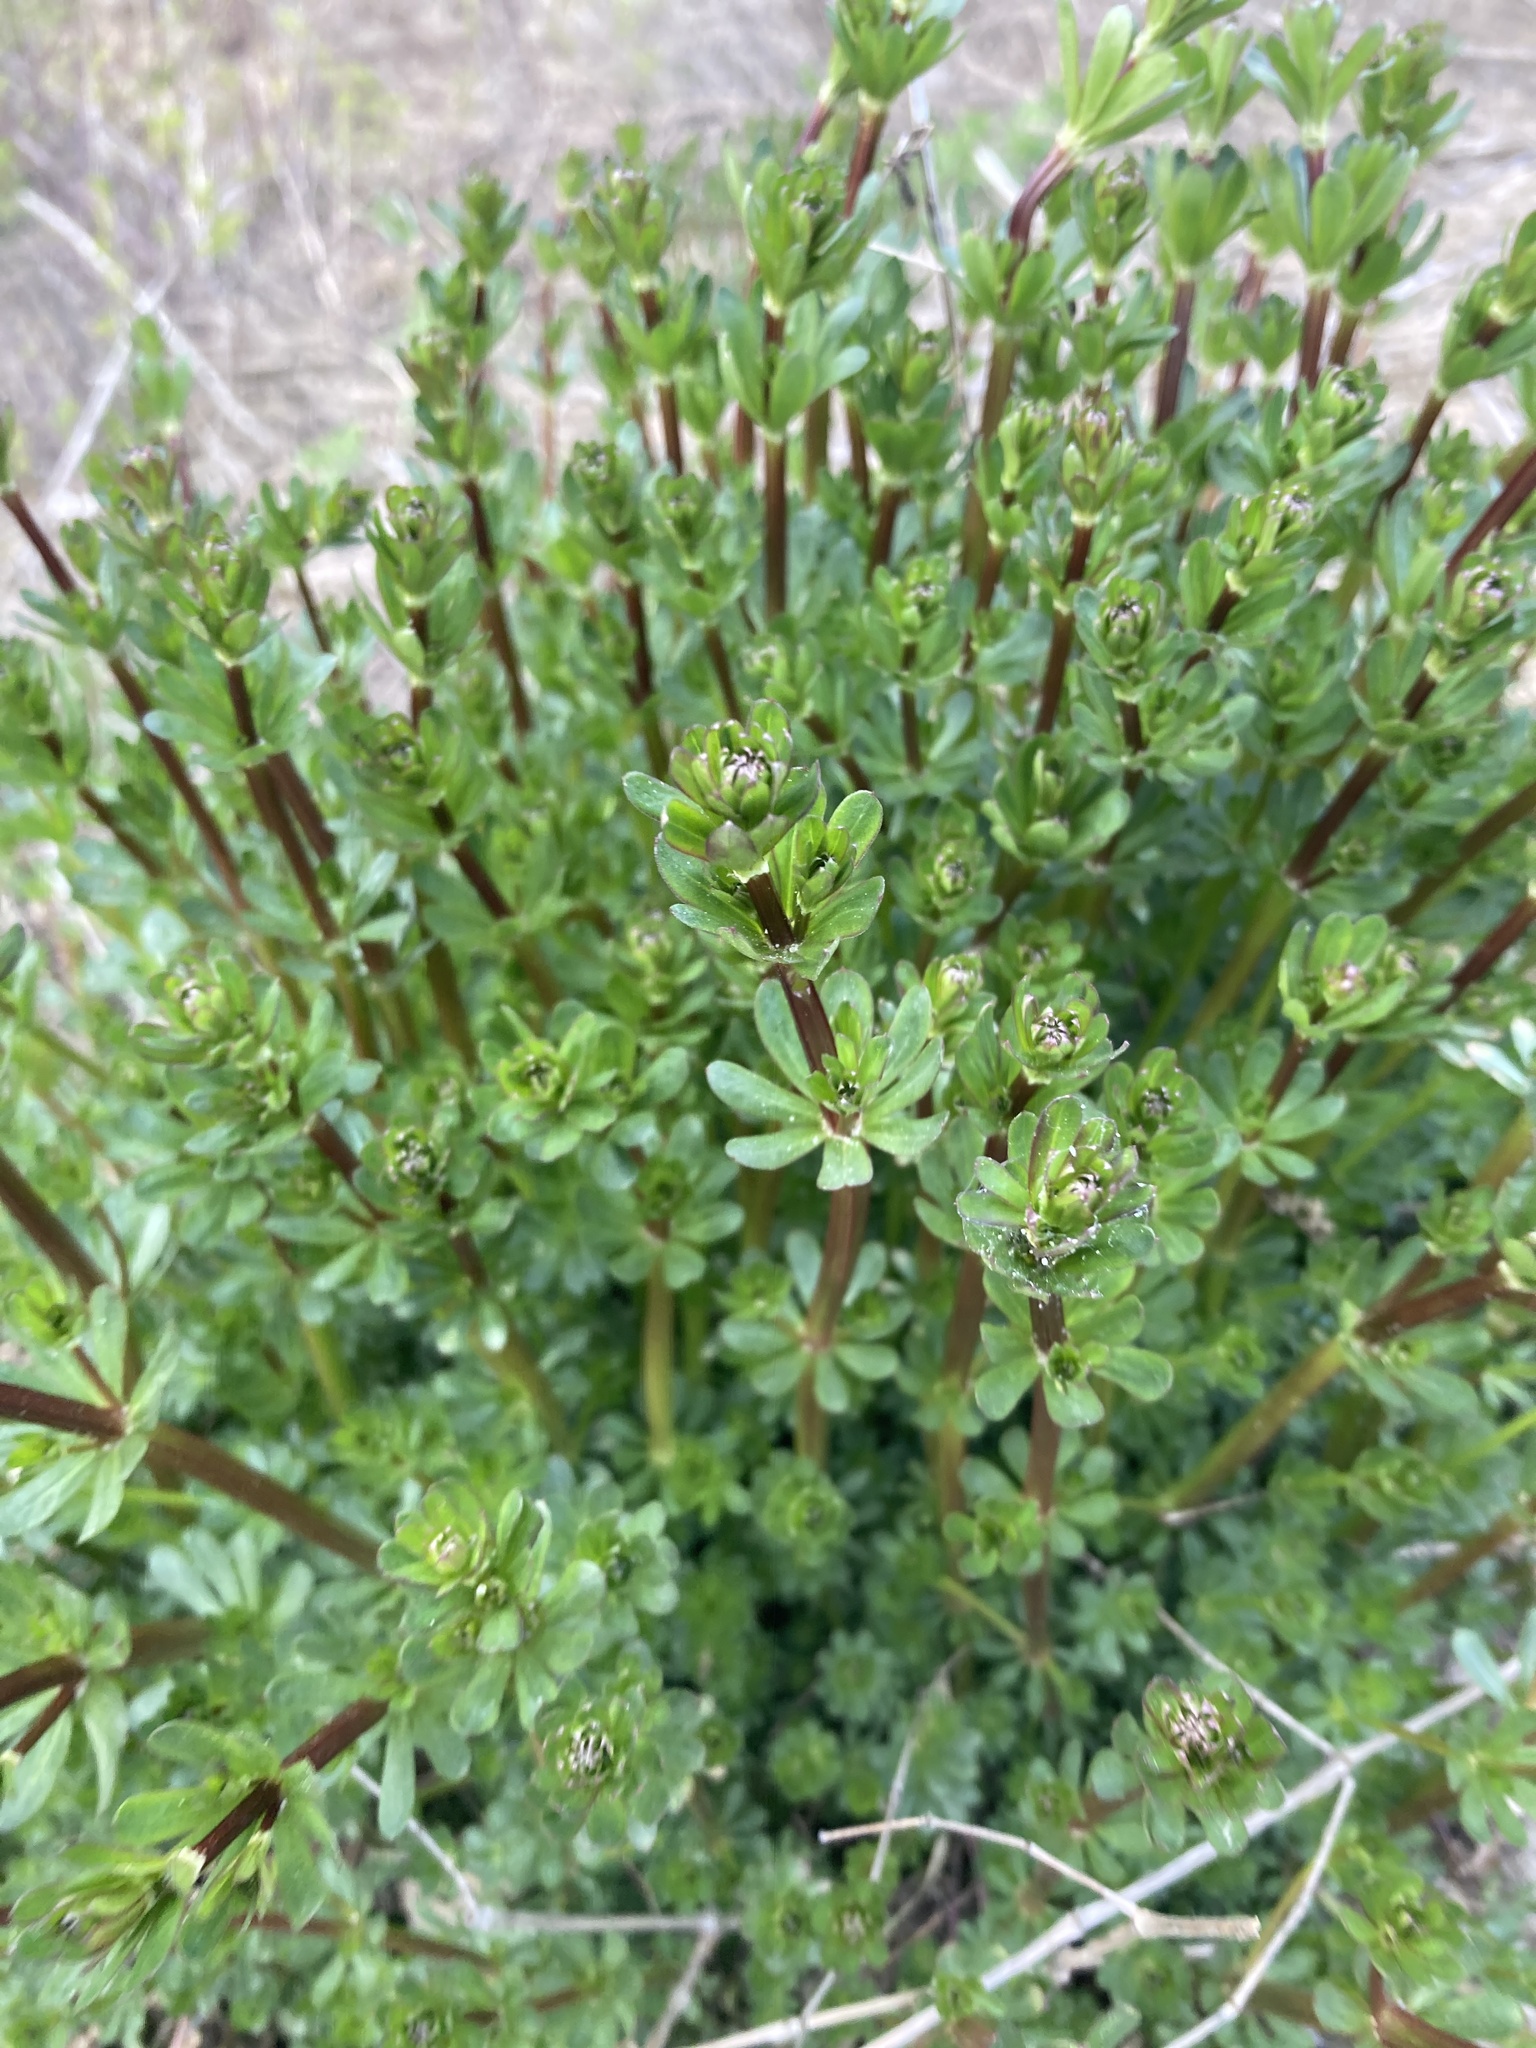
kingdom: Plantae
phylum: Tracheophyta
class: Magnoliopsida
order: Gentianales
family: Rubiaceae
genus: Galium
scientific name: Galium mollugo
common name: Hedge bedstraw
